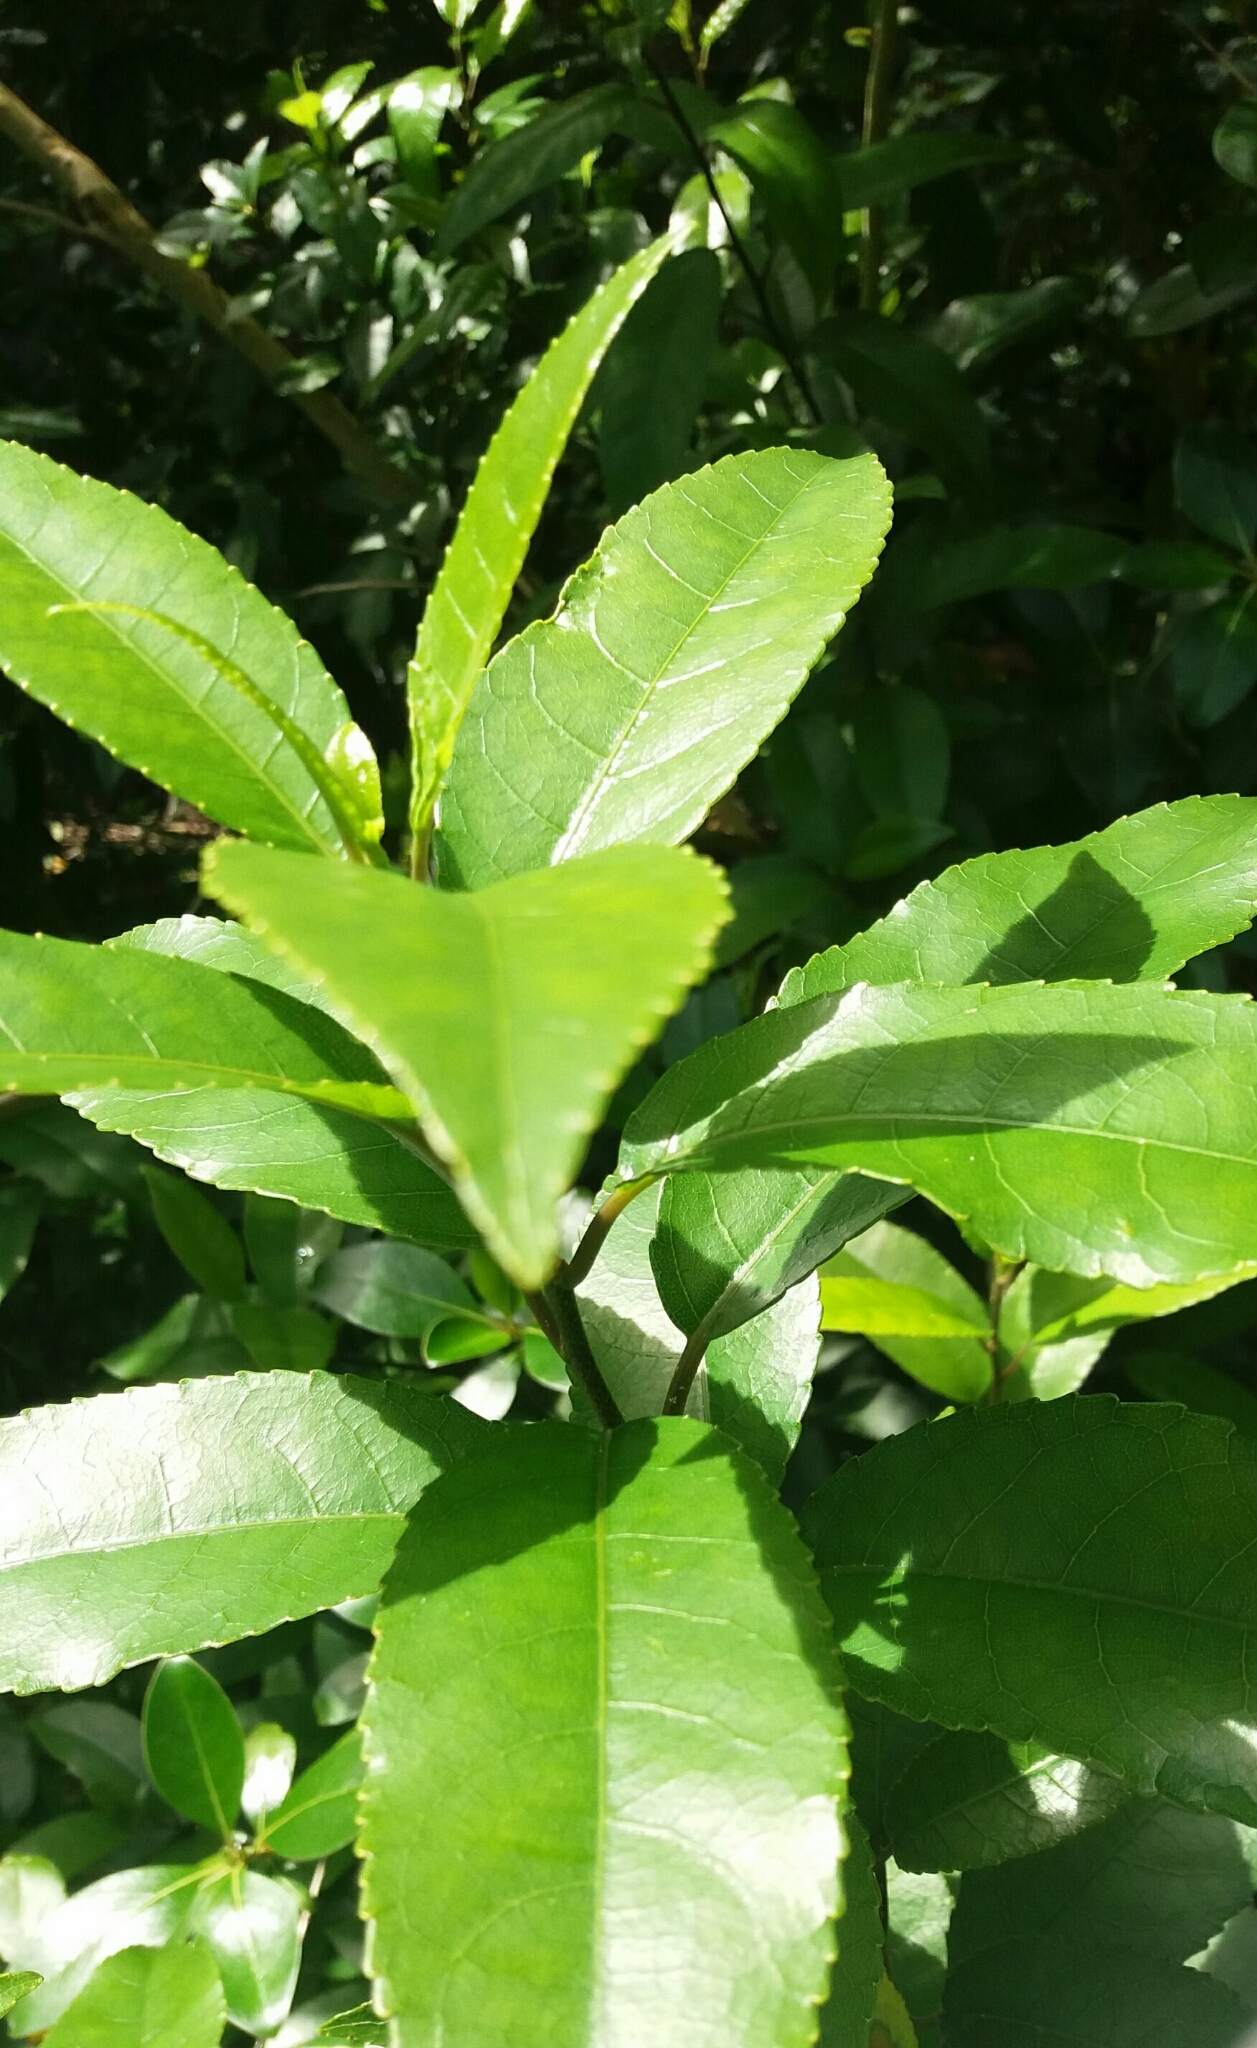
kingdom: Plantae
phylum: Tracheophyta
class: Magnoliopsida
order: Malpighiales
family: Violaceae
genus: Melicytus
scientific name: Melicytus ramiflorus
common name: Mahoe
